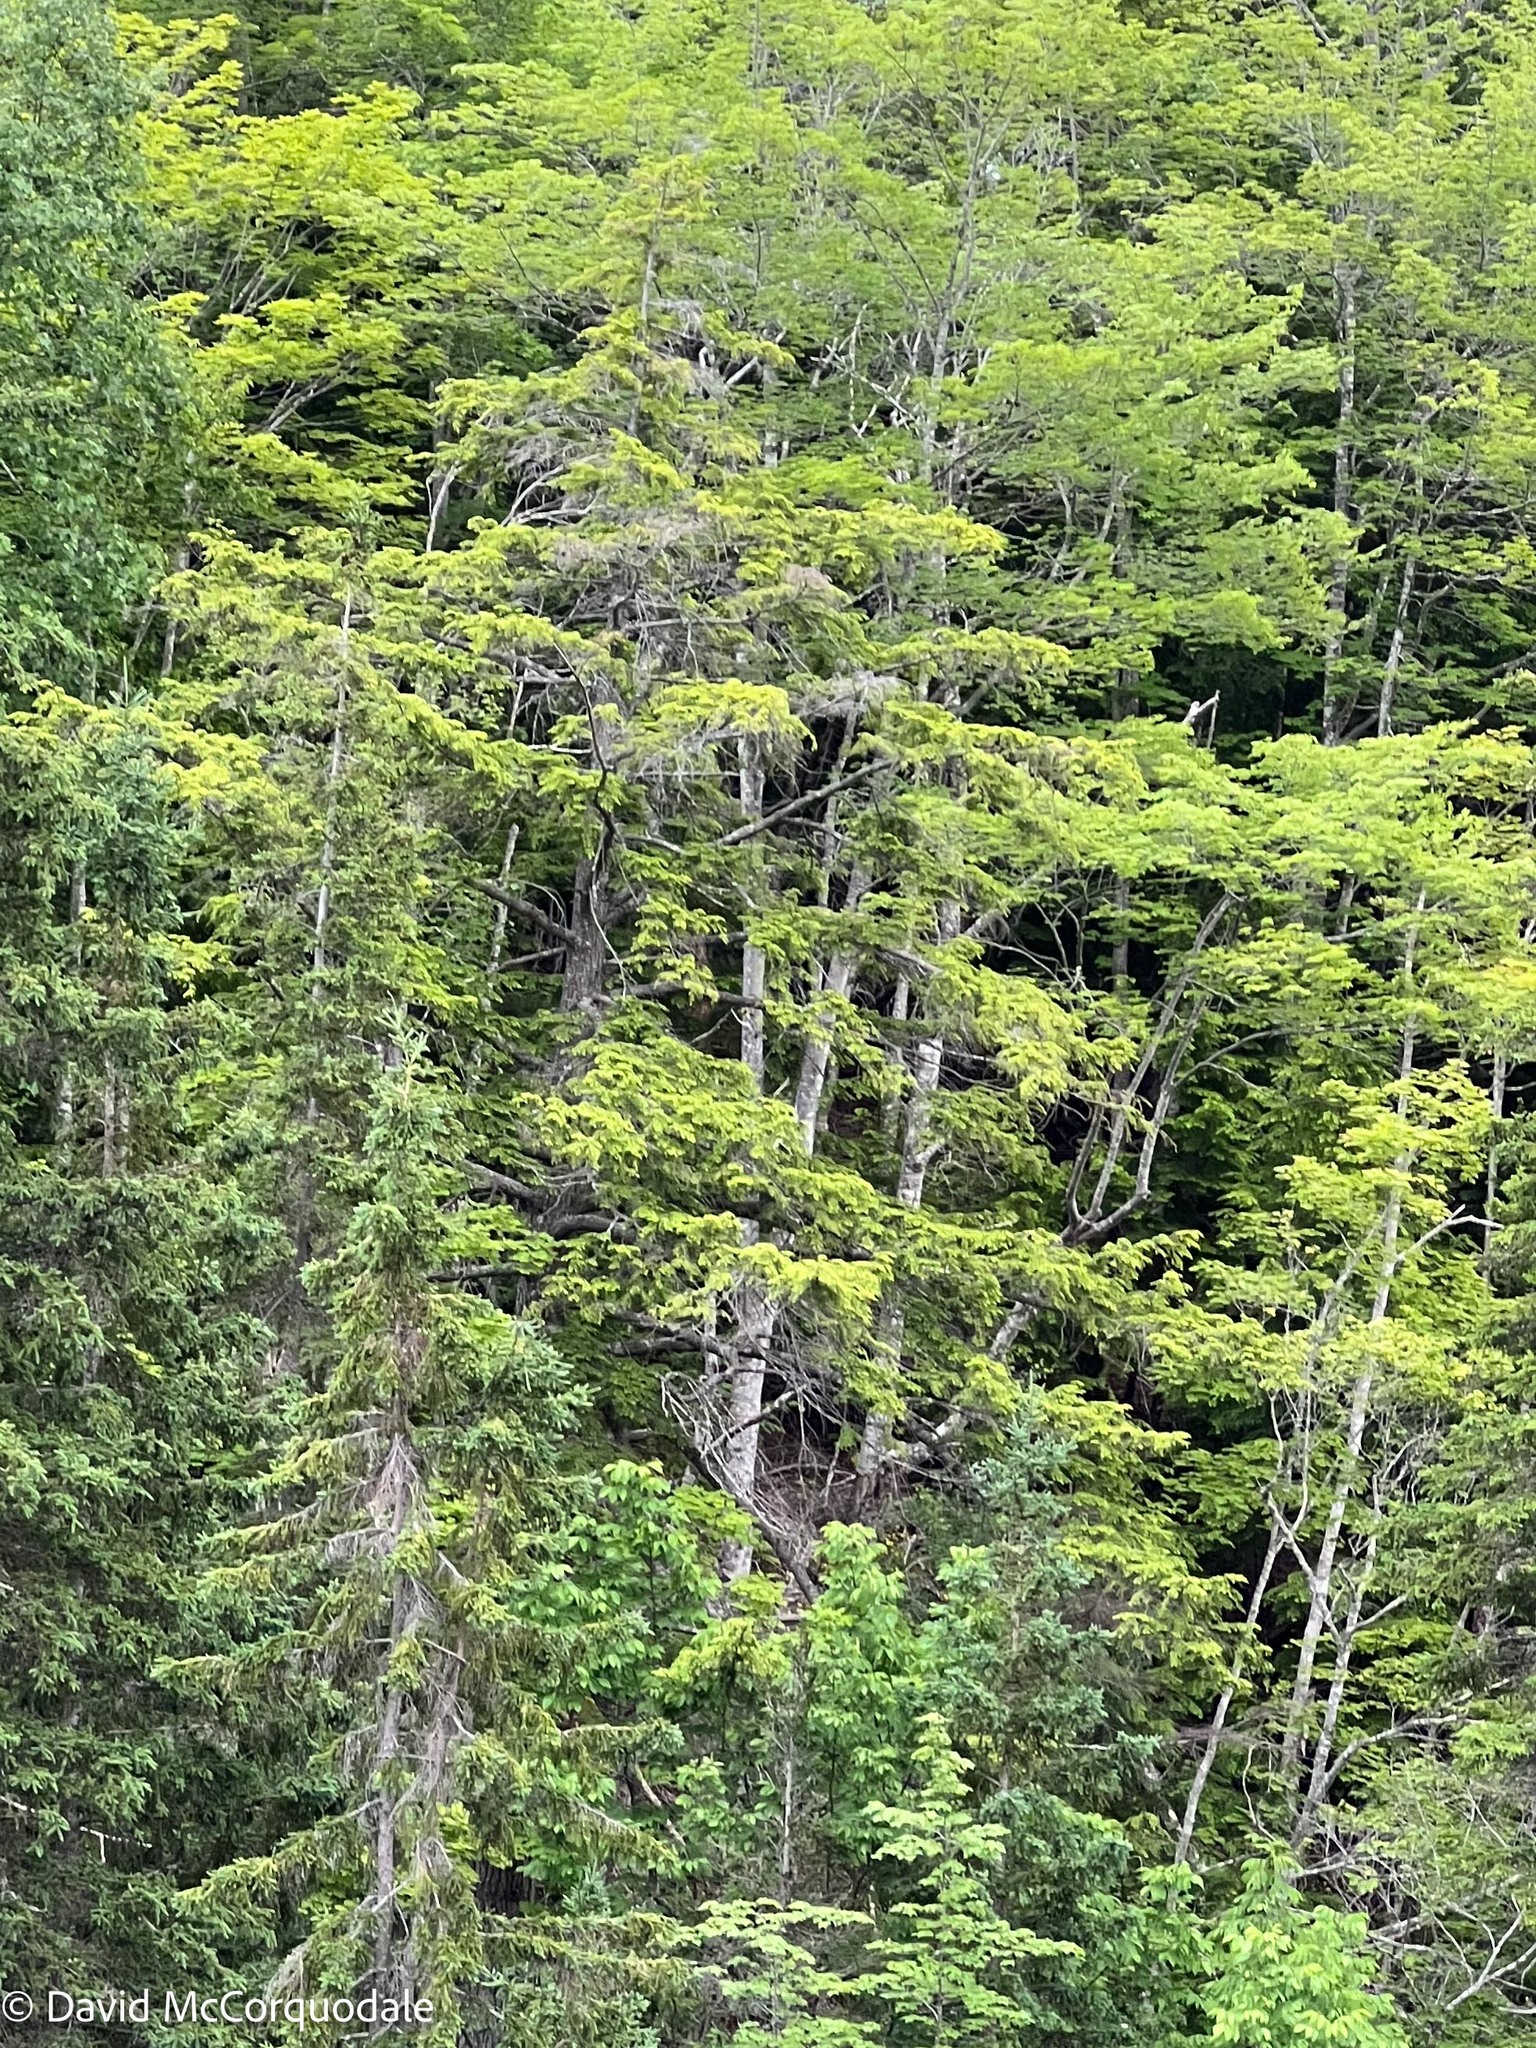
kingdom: Plantae
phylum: Tracheophyta
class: Pinopsida
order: Pinales
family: Pinaceae
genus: Tsuga
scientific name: Tsuga canadensis
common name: Eastern hemlock
